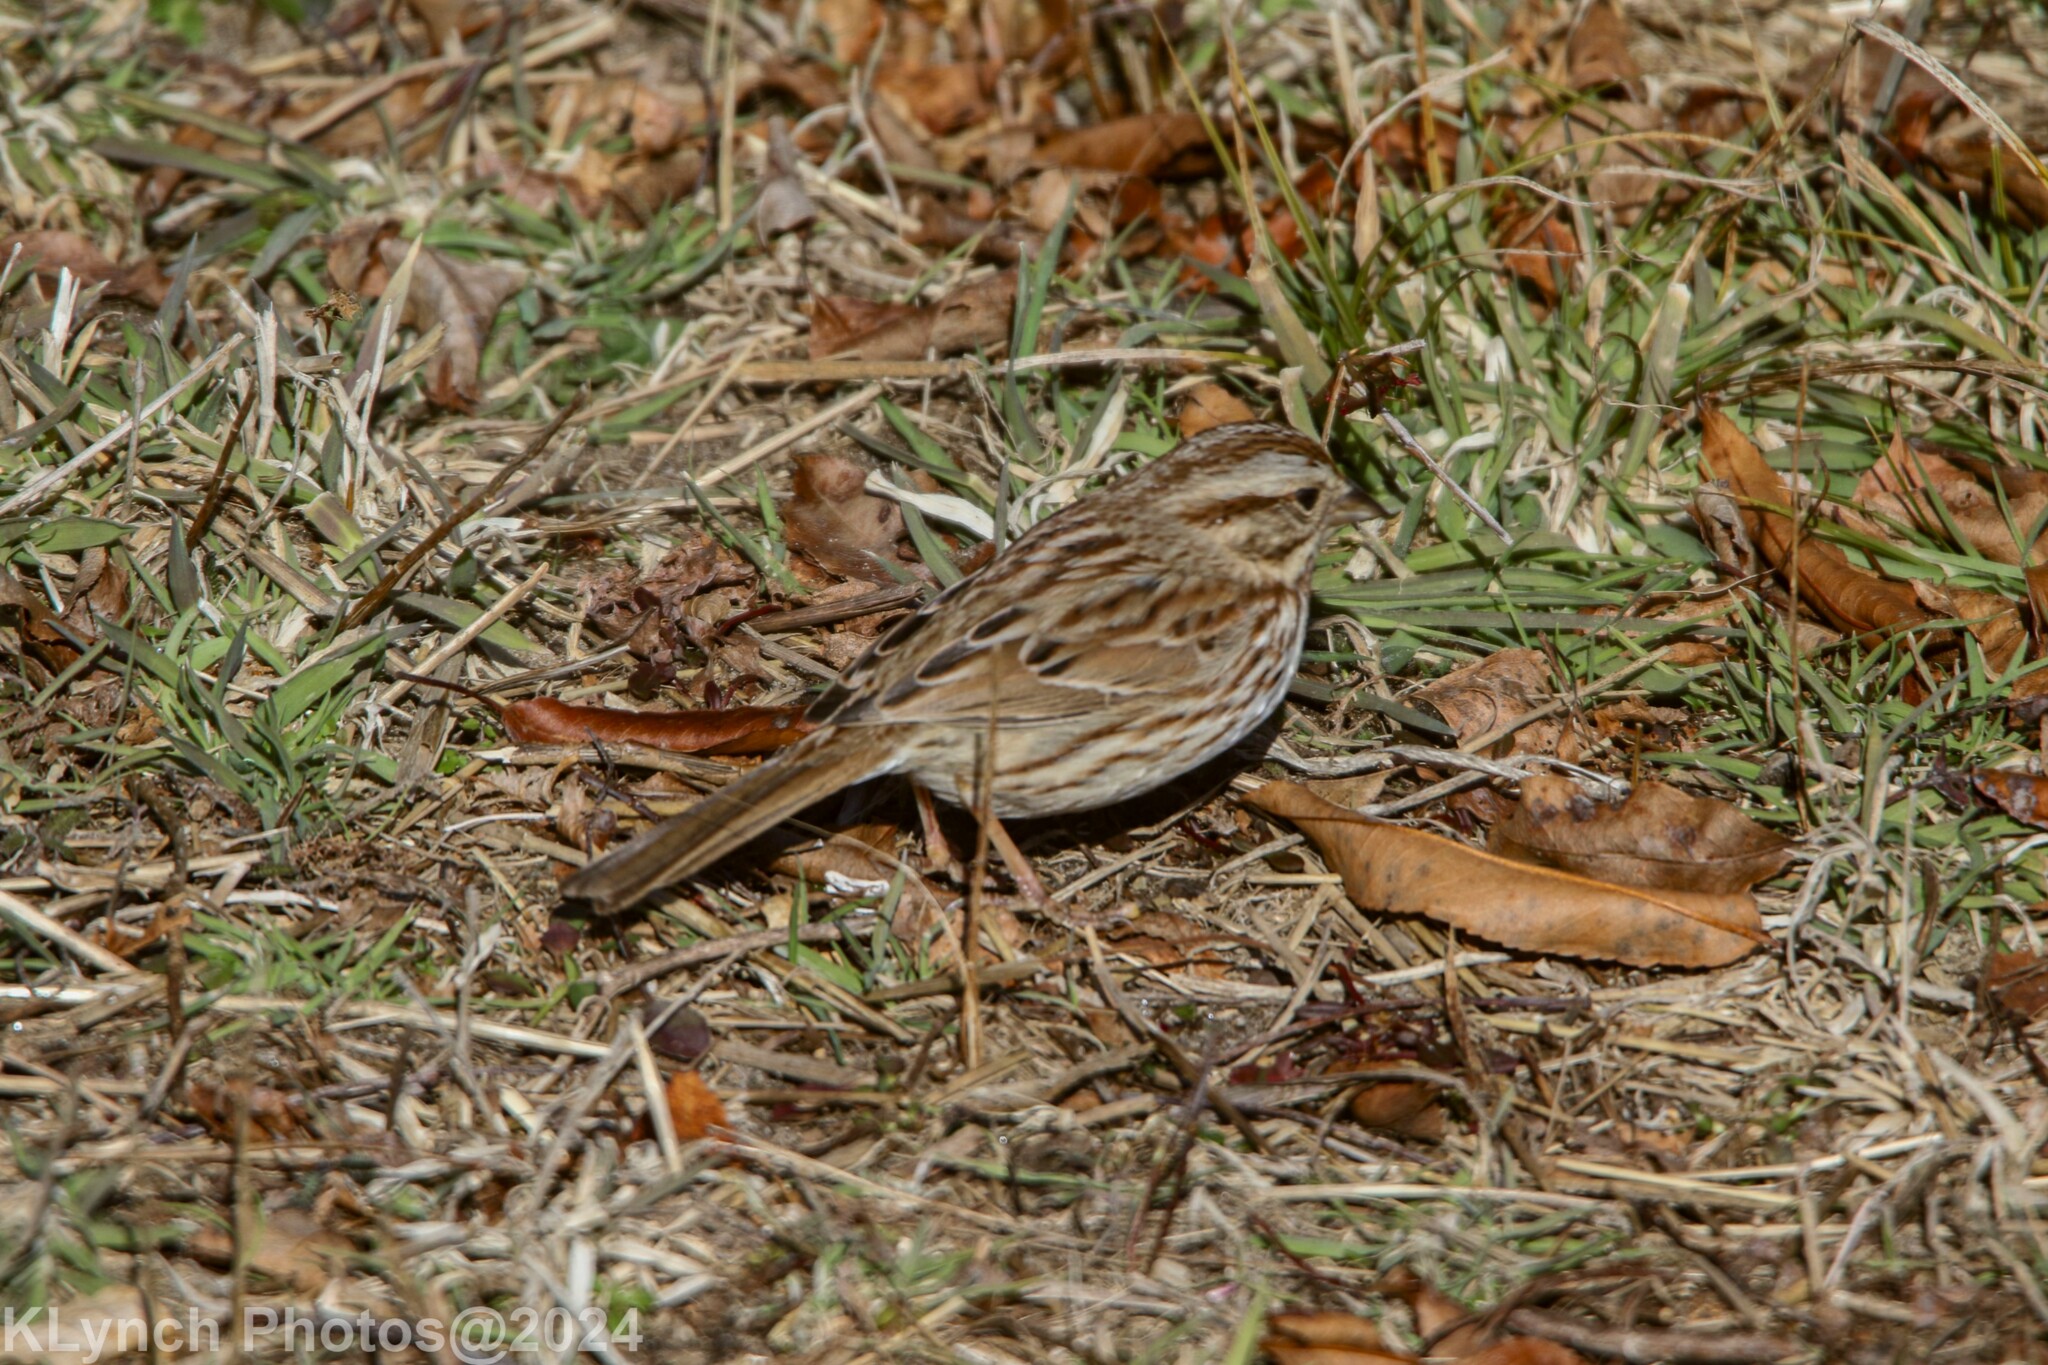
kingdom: Animalia
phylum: Chordata
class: Aves
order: Passeriformes
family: Passerellidae
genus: Melospiza
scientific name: Melospiza melodia
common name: Song sparrow
